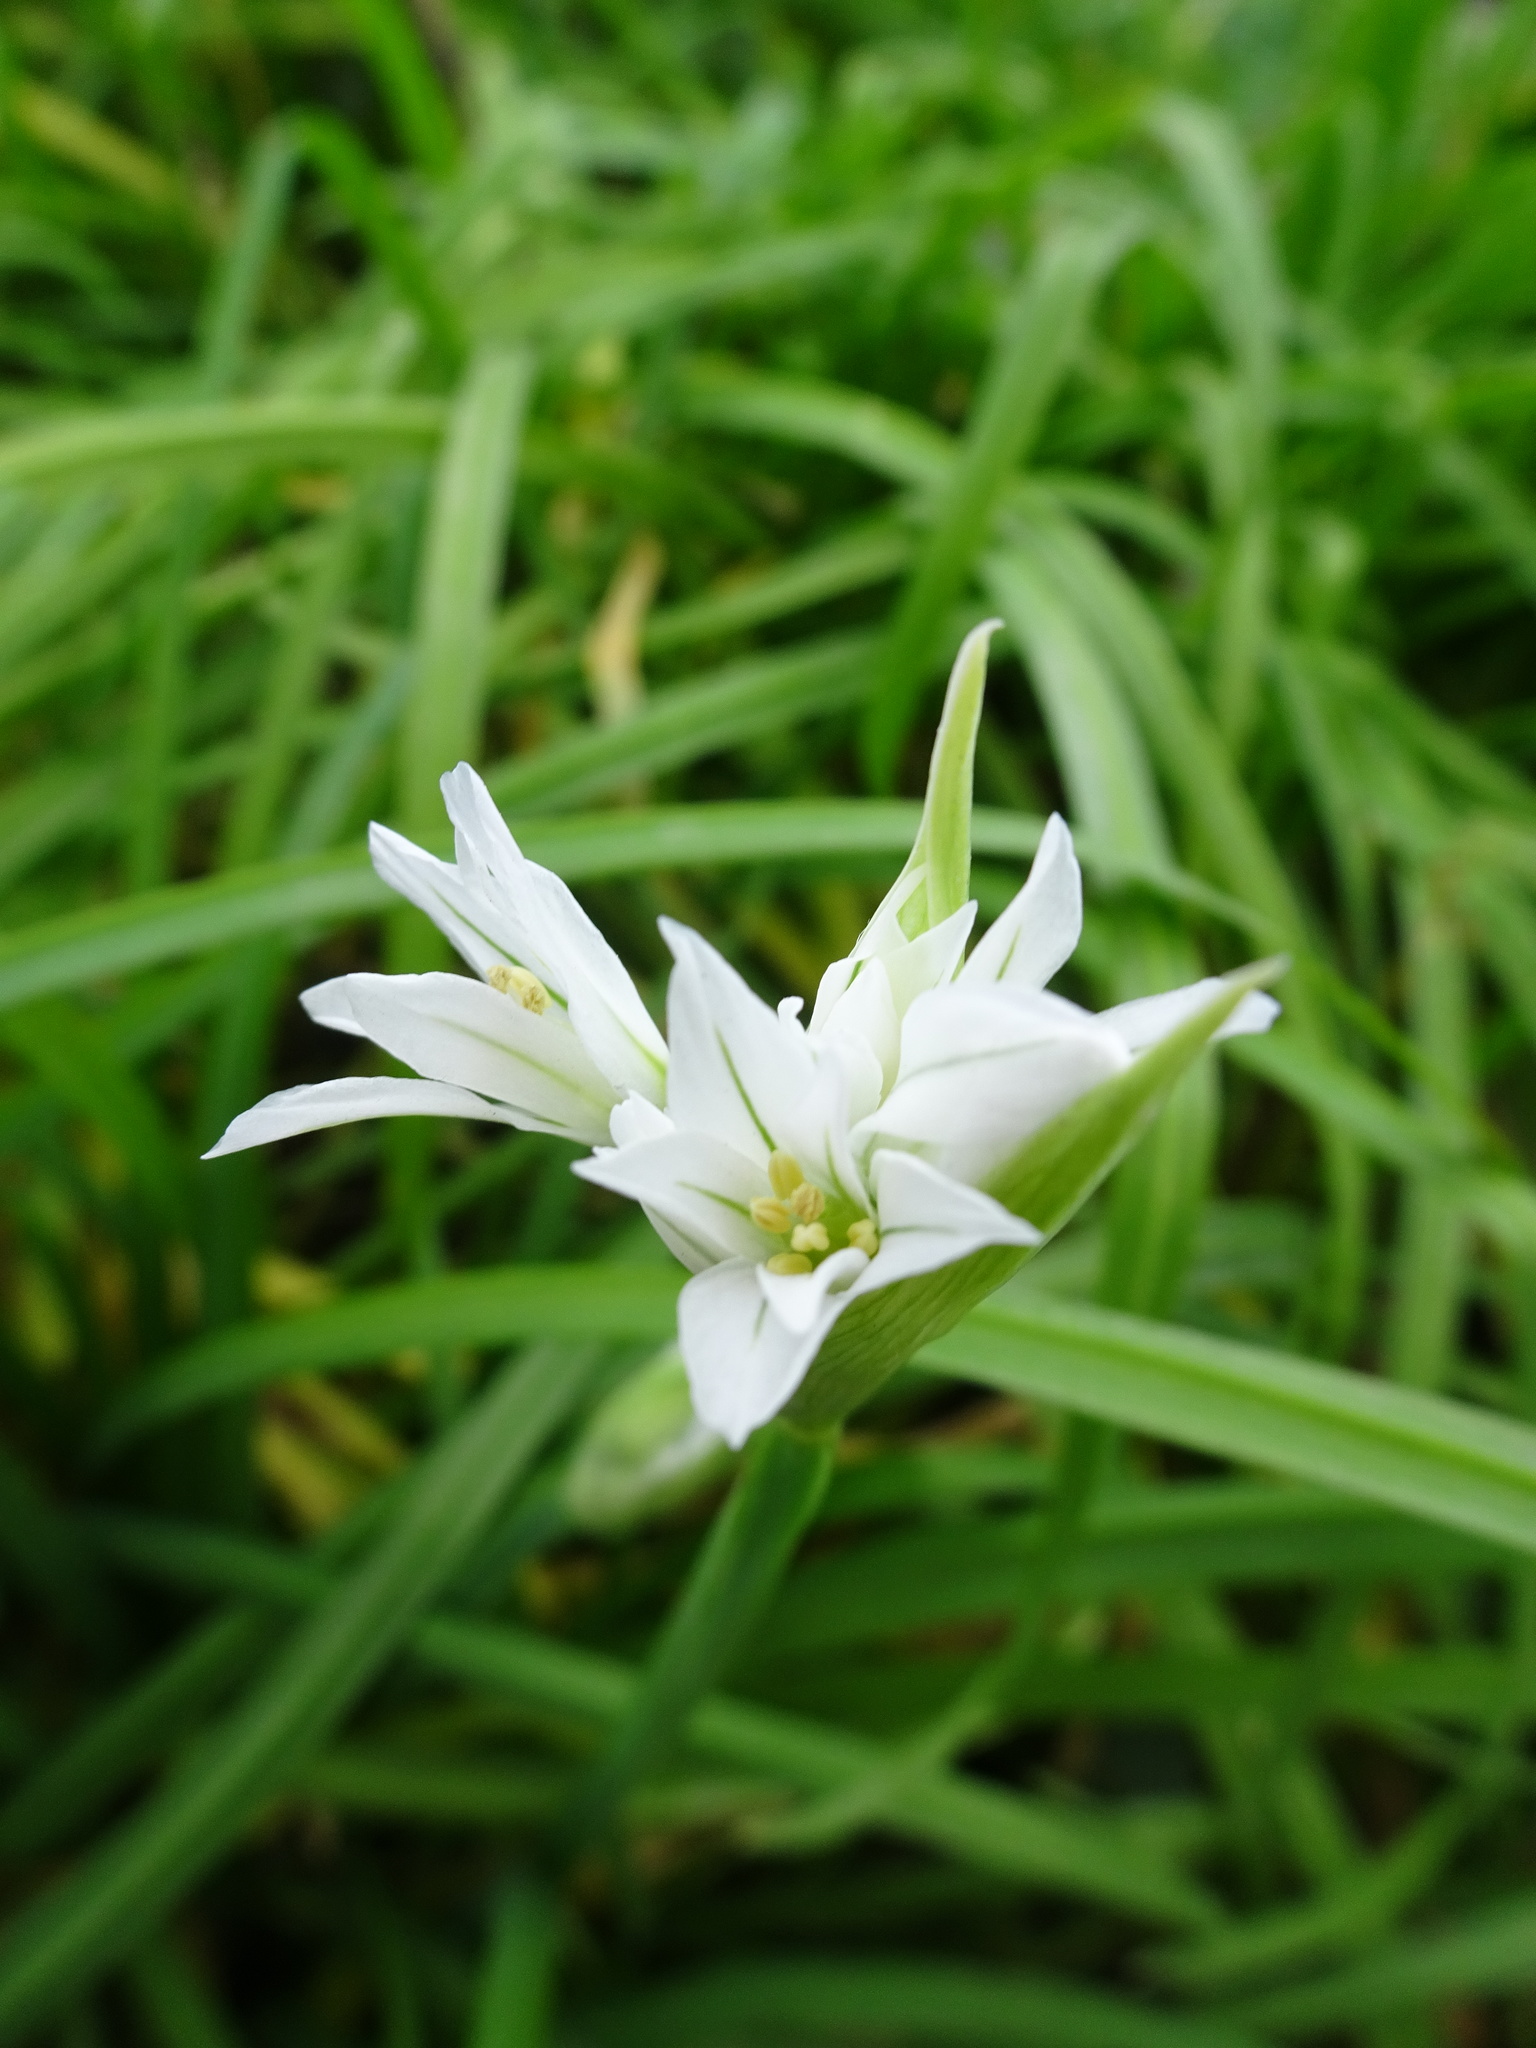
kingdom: Plantae
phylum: Tracheophyta
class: Liliopsida
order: Asparagales
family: Amaryllidaceae
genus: Allium
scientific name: Allium triquetrum
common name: Three-cornered garlic
